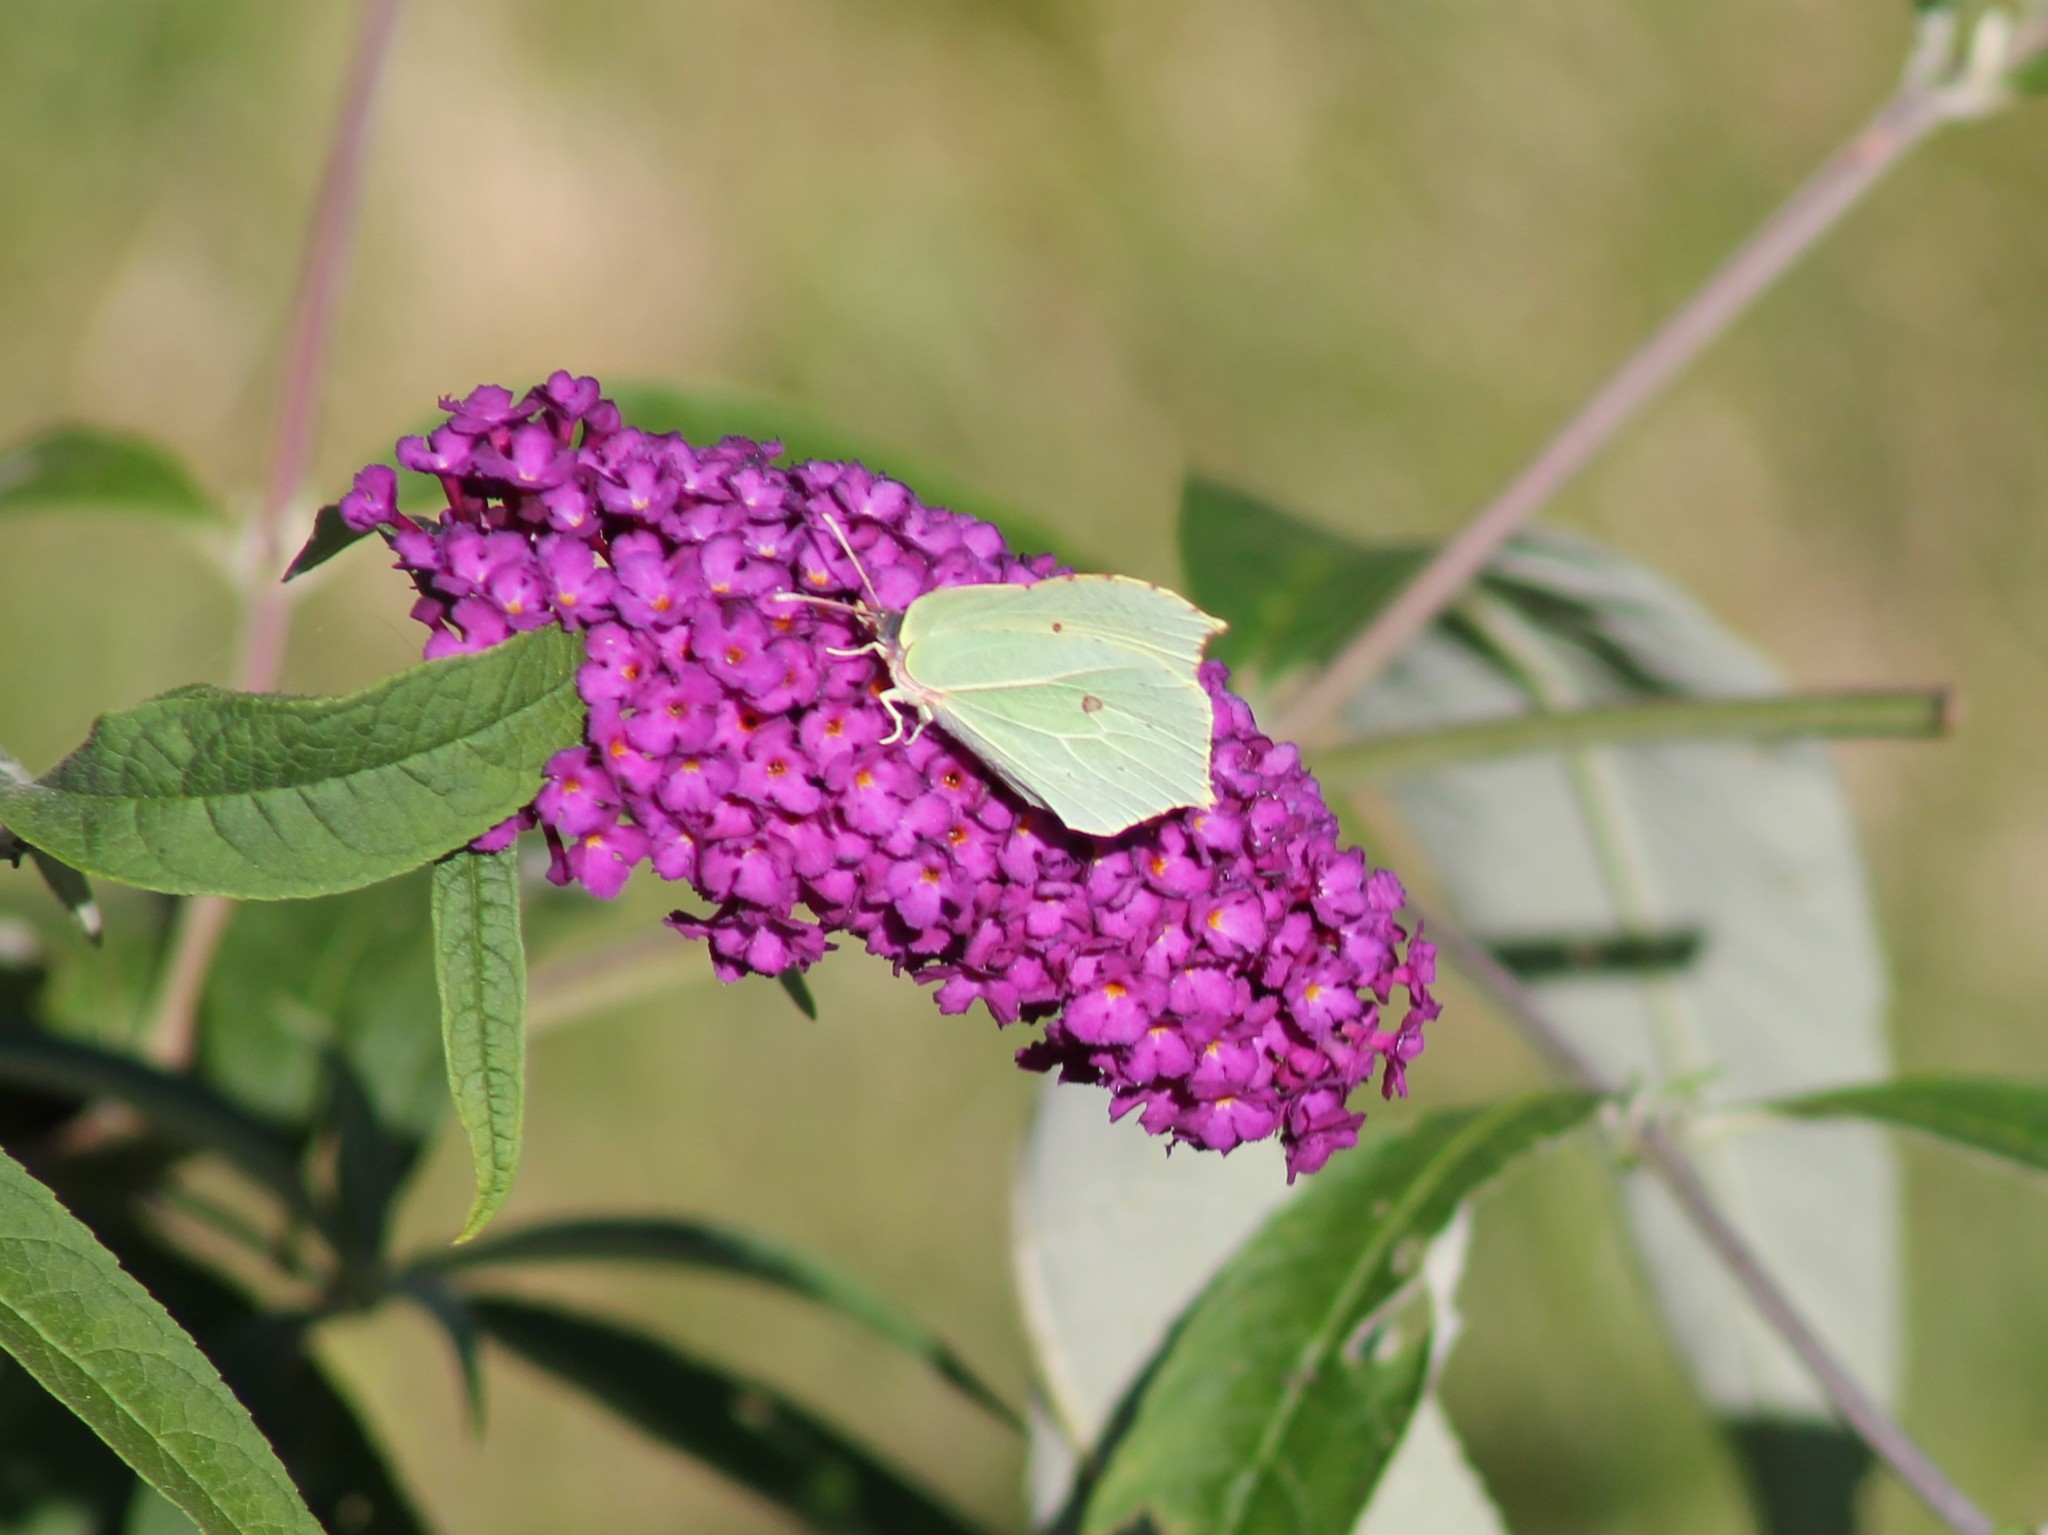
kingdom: Animalia
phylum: Arthropoda
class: Insecta
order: Lepidoptera
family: Pieridae
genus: Gonepteryx
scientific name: Gonepteryx rhamni
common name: Brimstone
